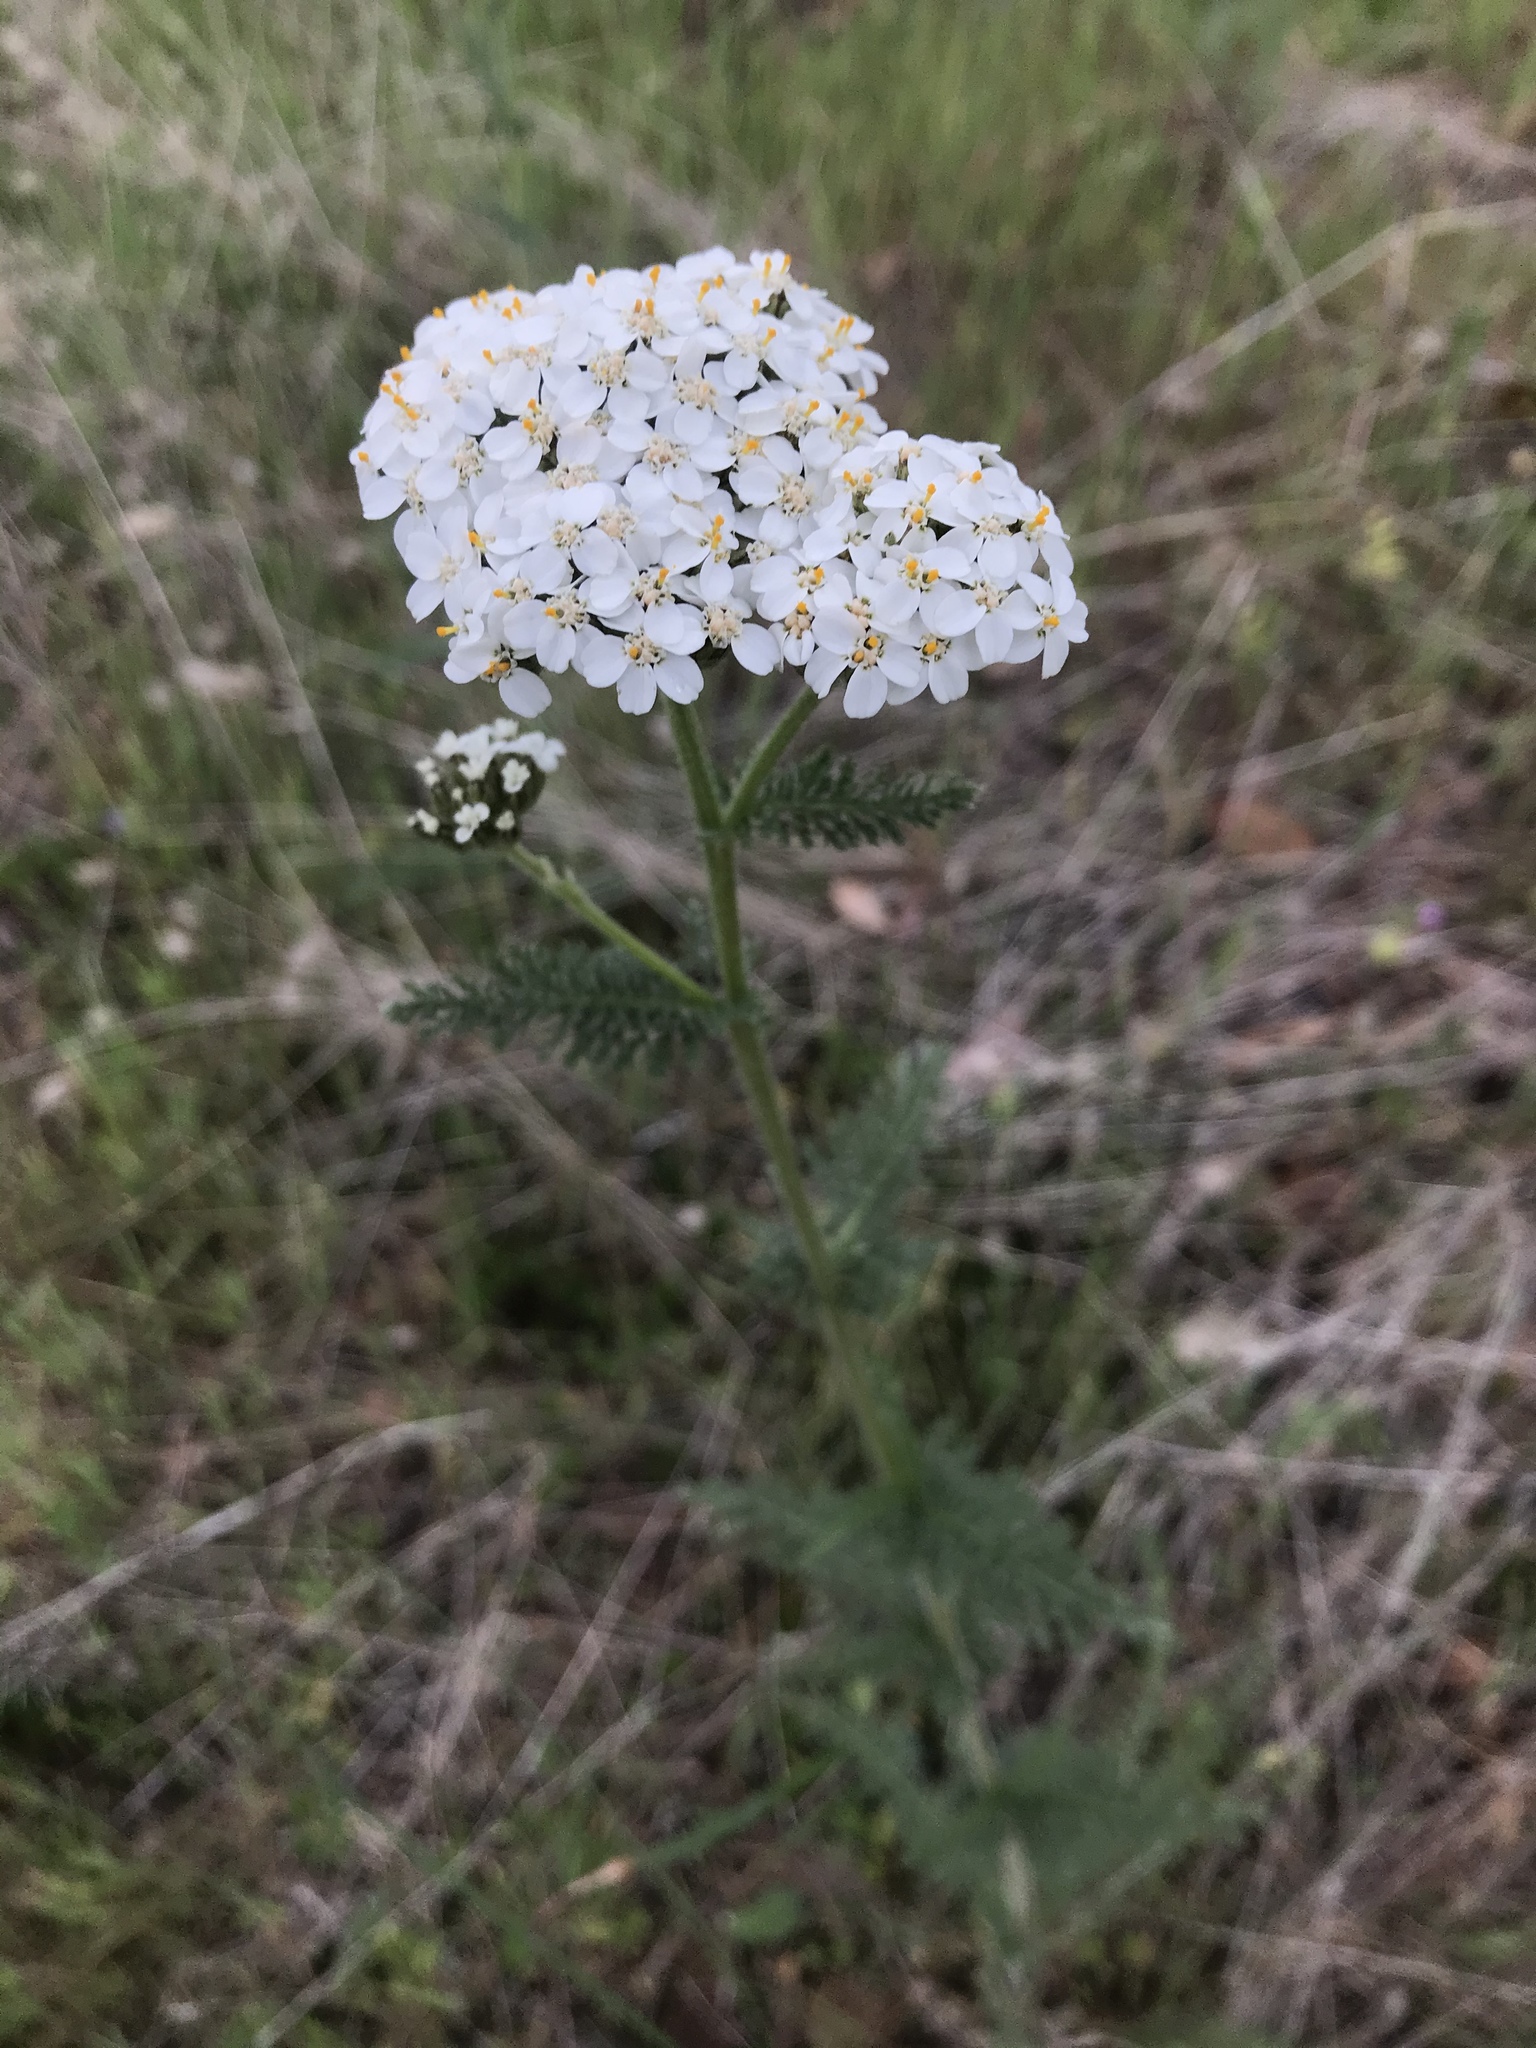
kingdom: Plantae
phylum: Tracheophyta
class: Magnoliopsida
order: Asterales
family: Asteraceae
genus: Achillea
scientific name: Achillea millefolium
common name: Yarrow
